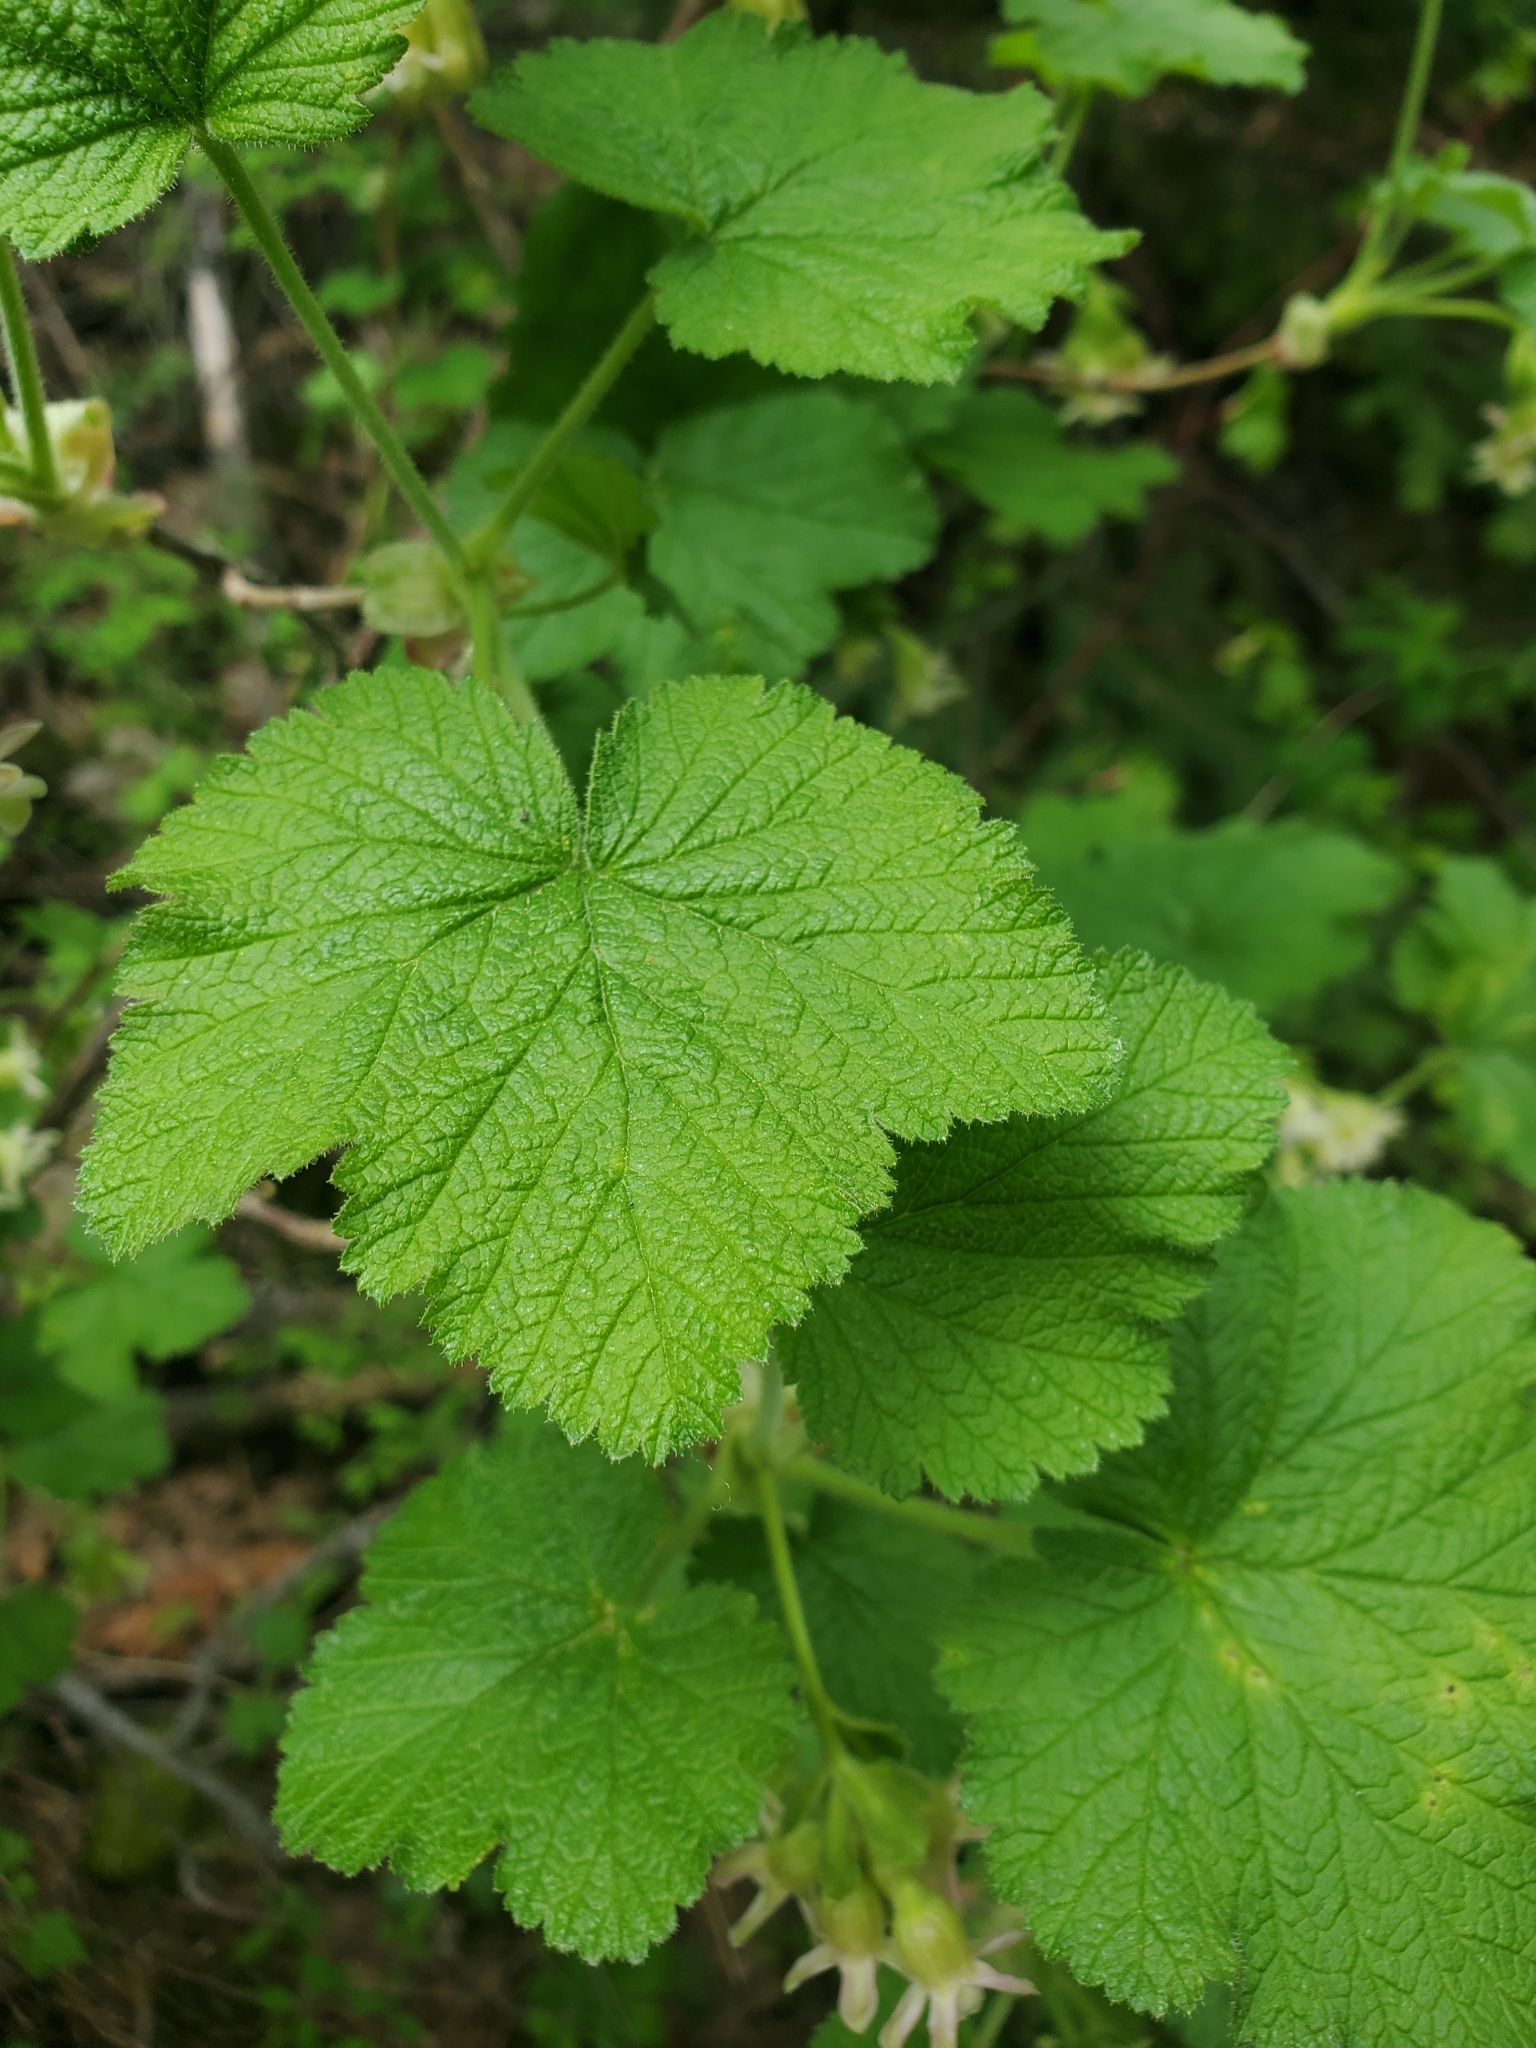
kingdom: Plantae
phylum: Tracheophyta
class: Magnoliopsida
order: Saxifragales
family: Grossulariaceae
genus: Ribes
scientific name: Ribes viscosissimum
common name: Sticky currant
